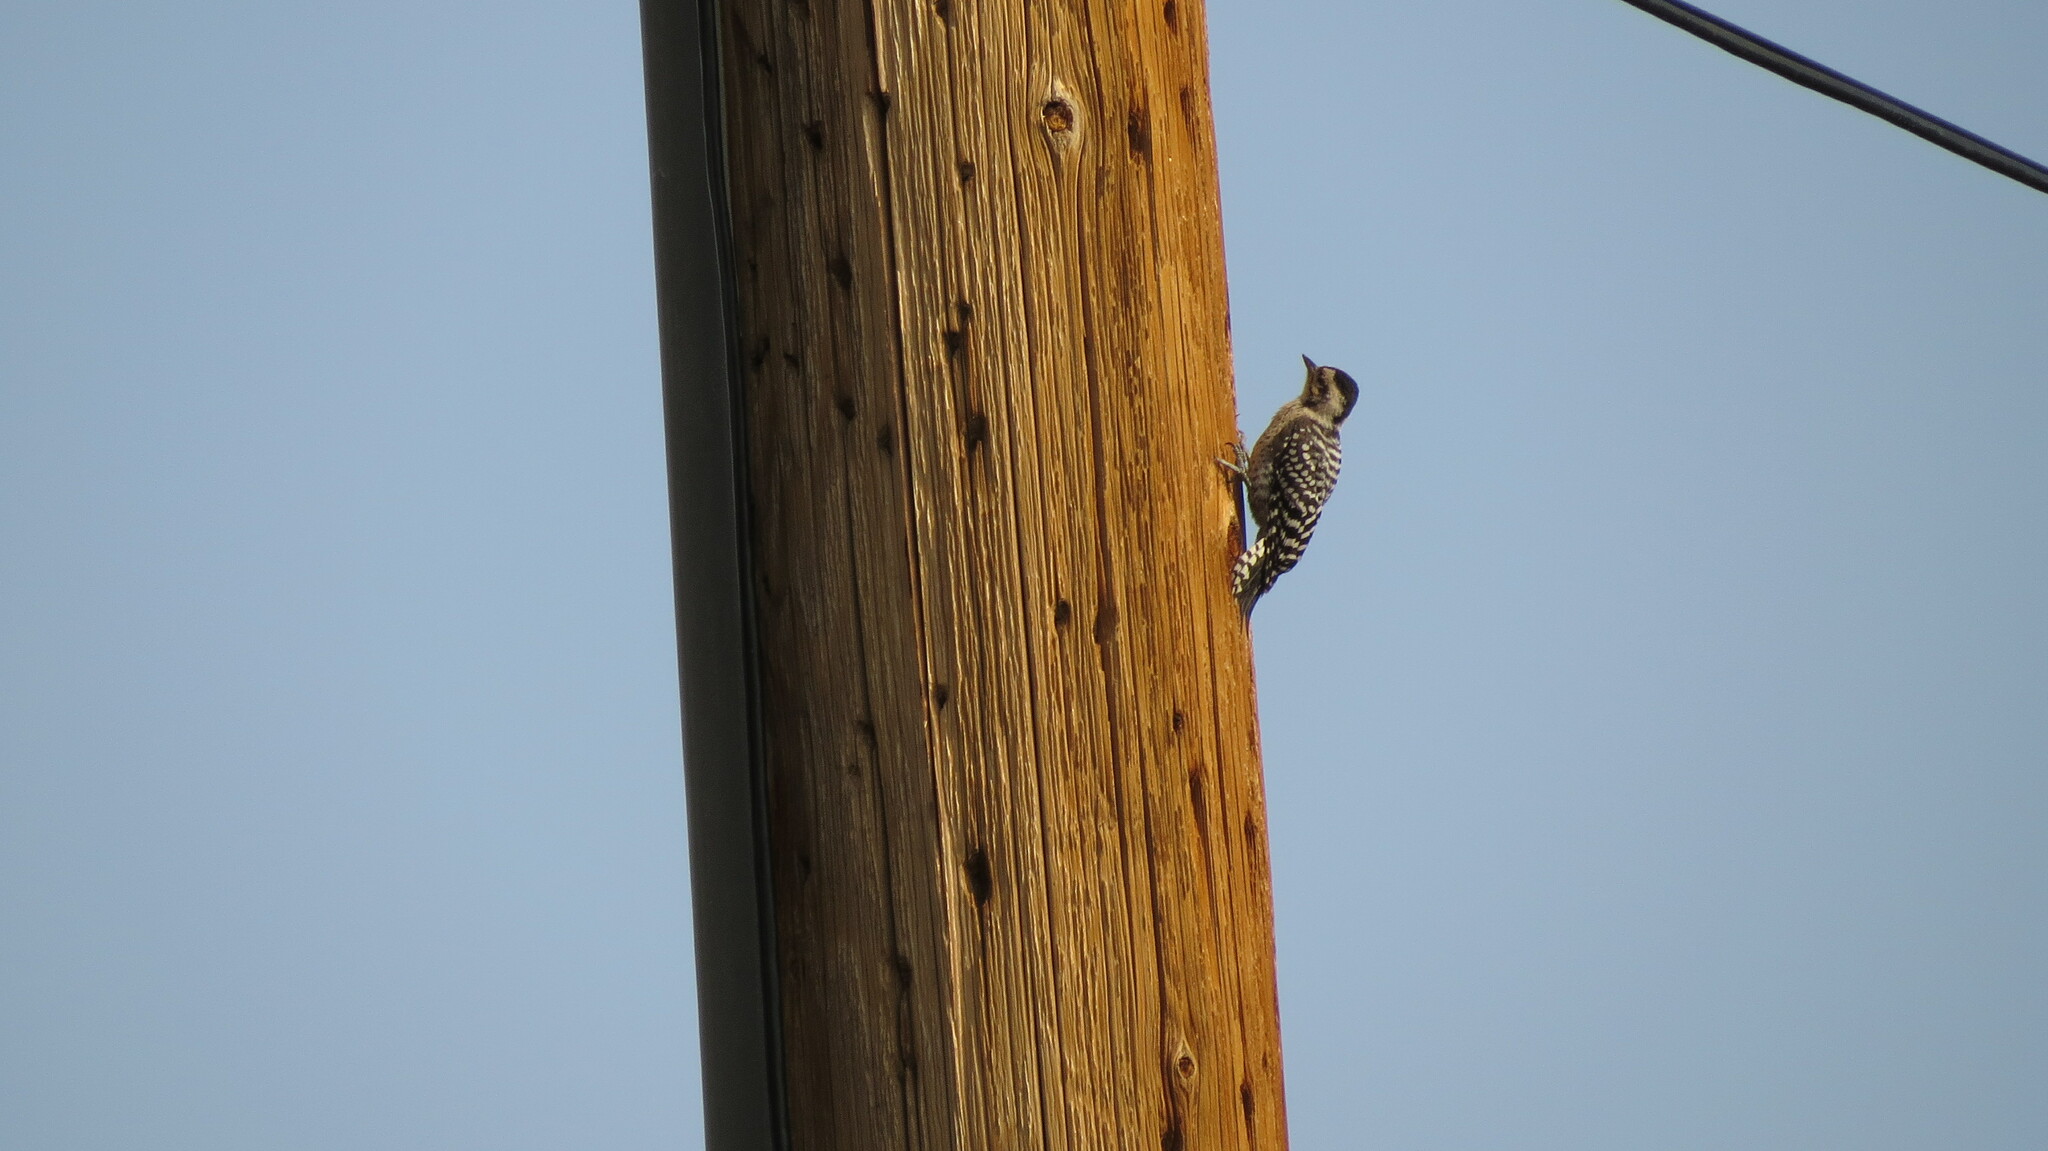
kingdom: Animalia
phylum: Chordata
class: Aves
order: Piciformes
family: Picidae
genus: Dryobates
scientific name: Dryobates scalaris
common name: Ladder-backed woodpecker
